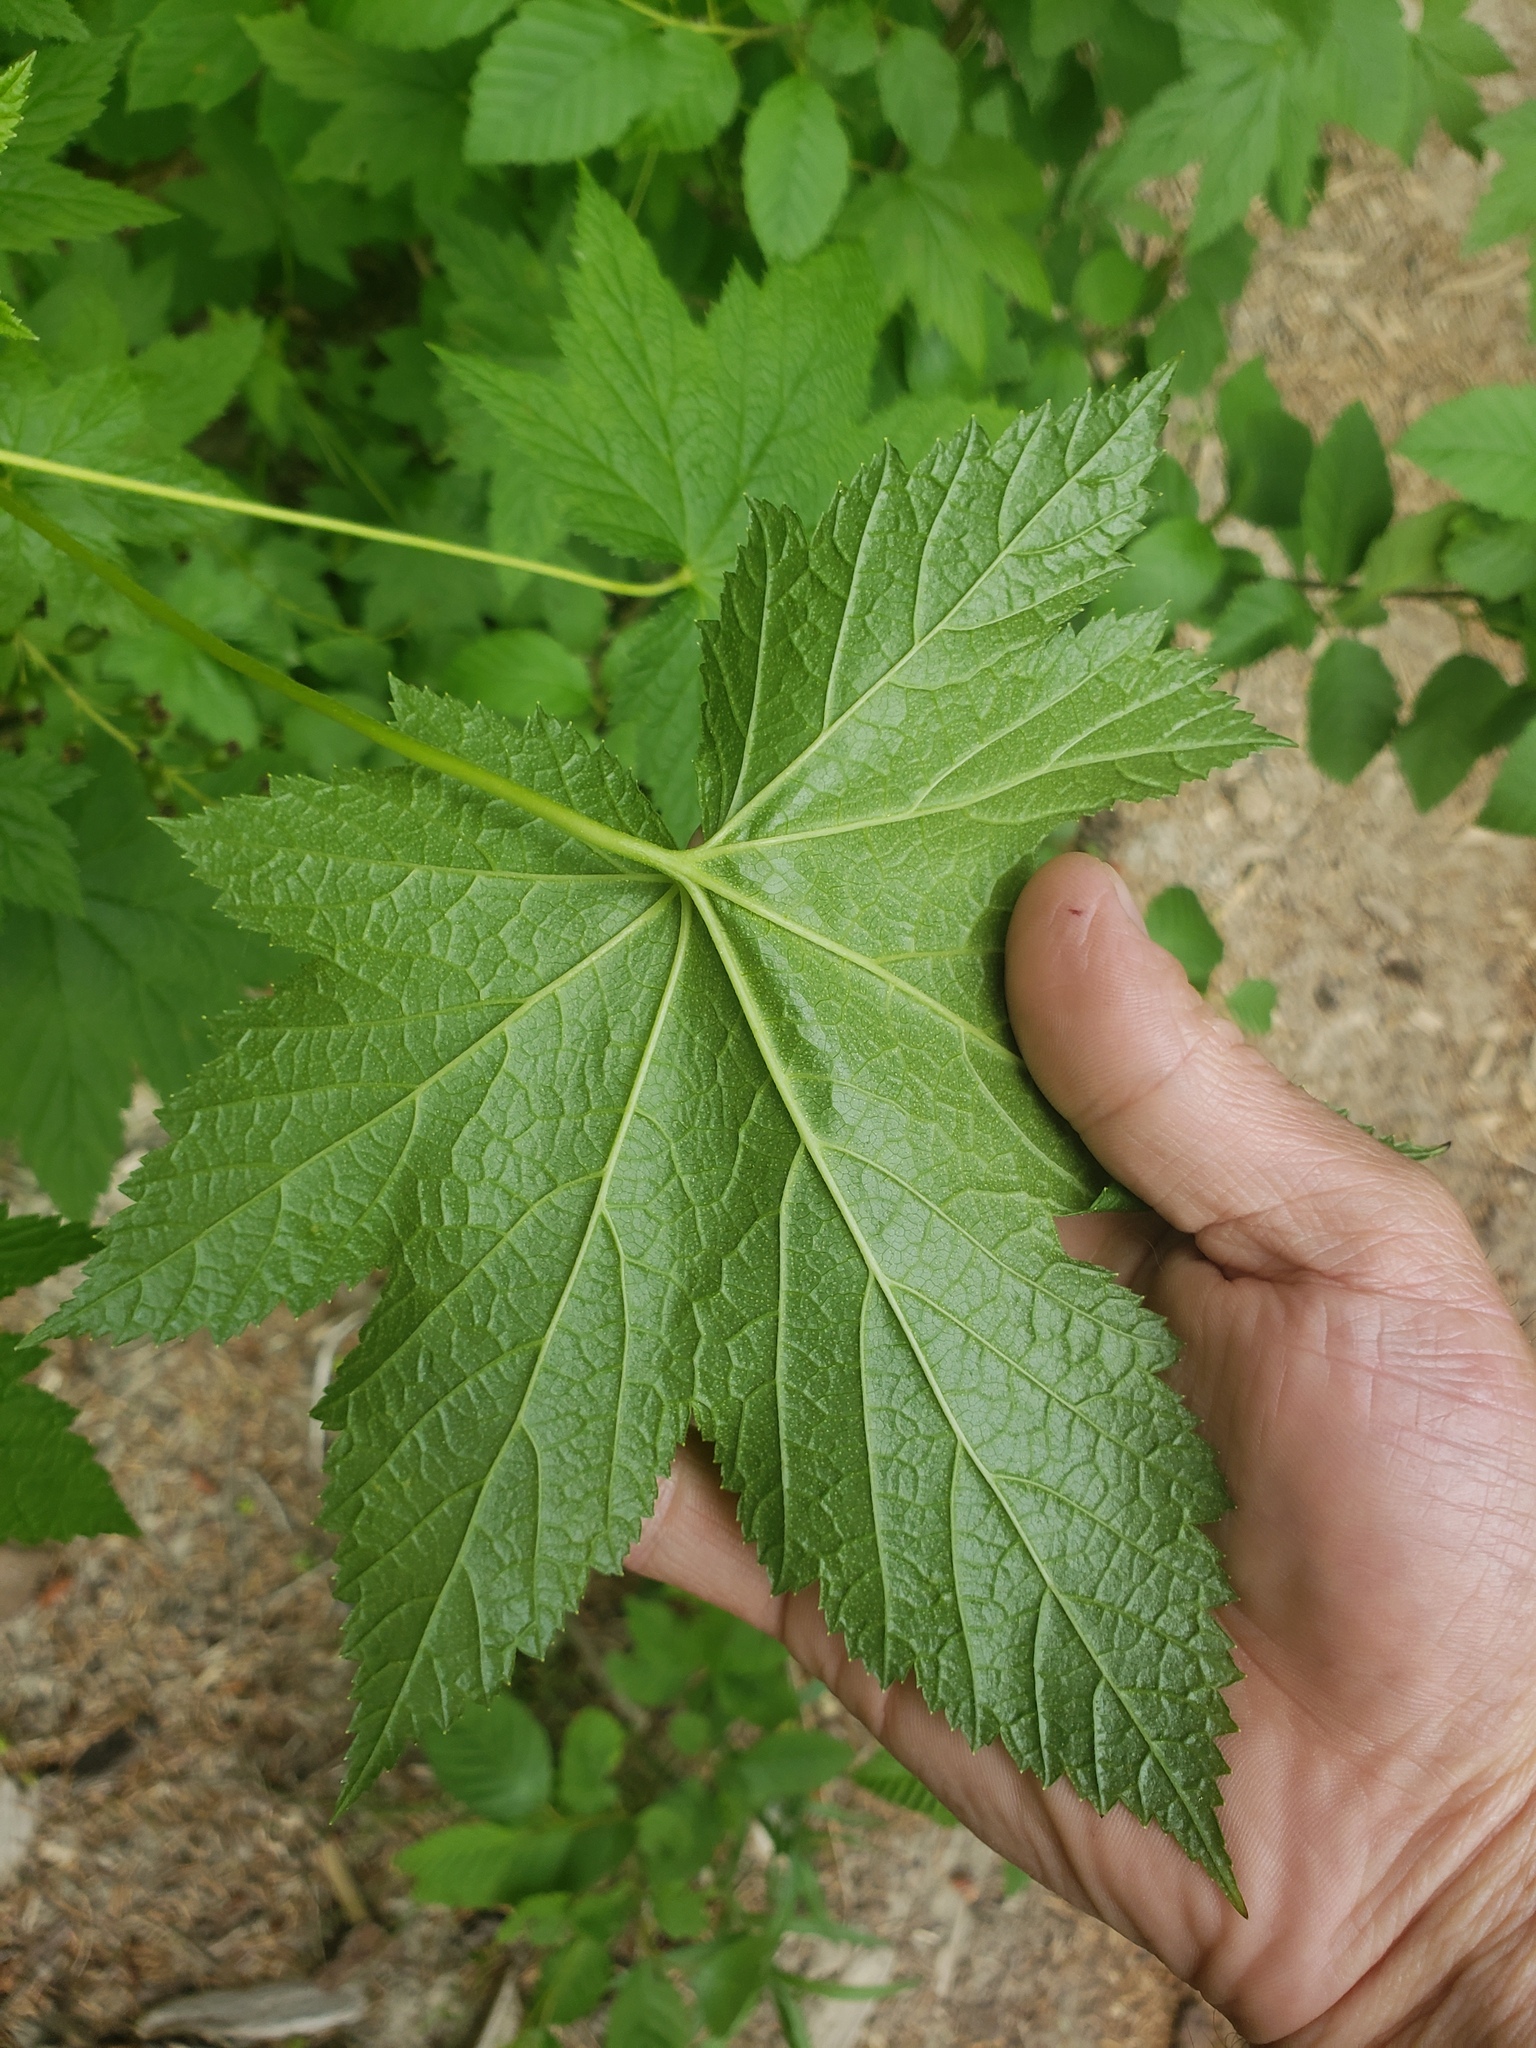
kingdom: Plantae
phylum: Tracheophyta
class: Magnoliopsida
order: Saxifragales
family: Grossulariaceae
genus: Ribes
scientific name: Ribes bracteosum
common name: California black currant
